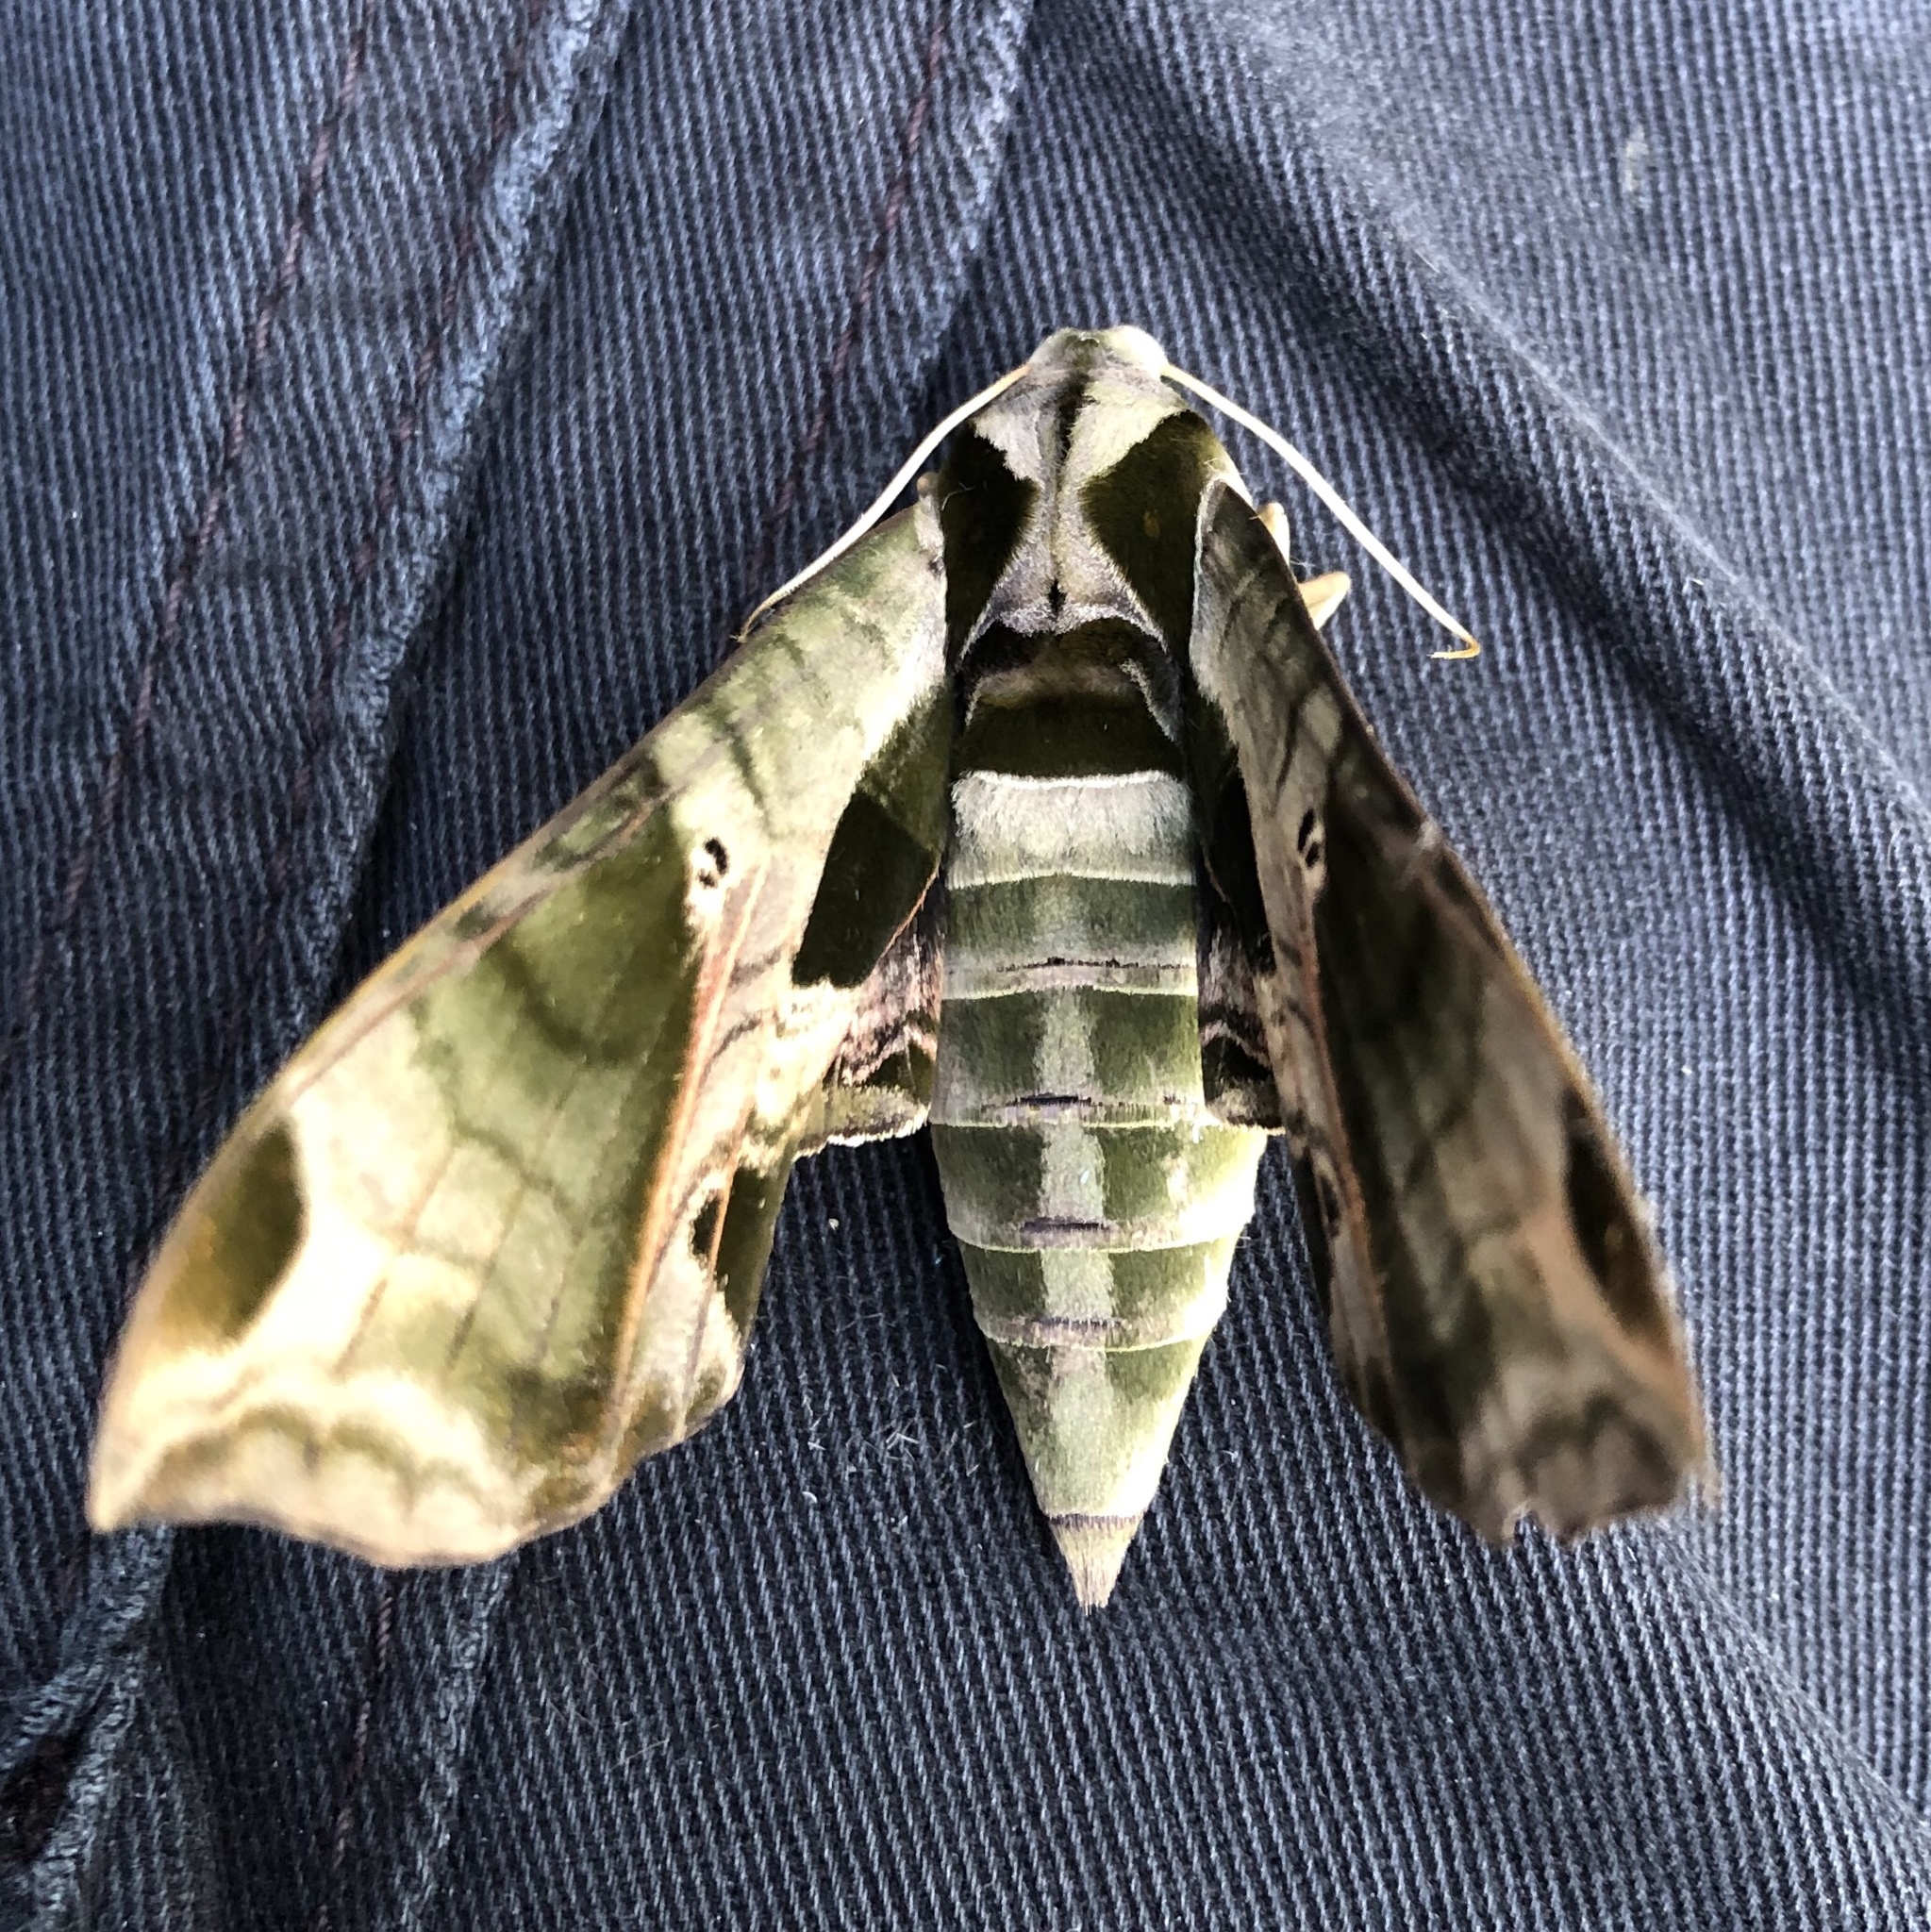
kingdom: Animalia
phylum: Arthropoda
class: Insecta
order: Lepidoptera
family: Sphingidae
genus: Eumorpha
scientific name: Eumorpha pandorus
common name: Pandora sphinx
